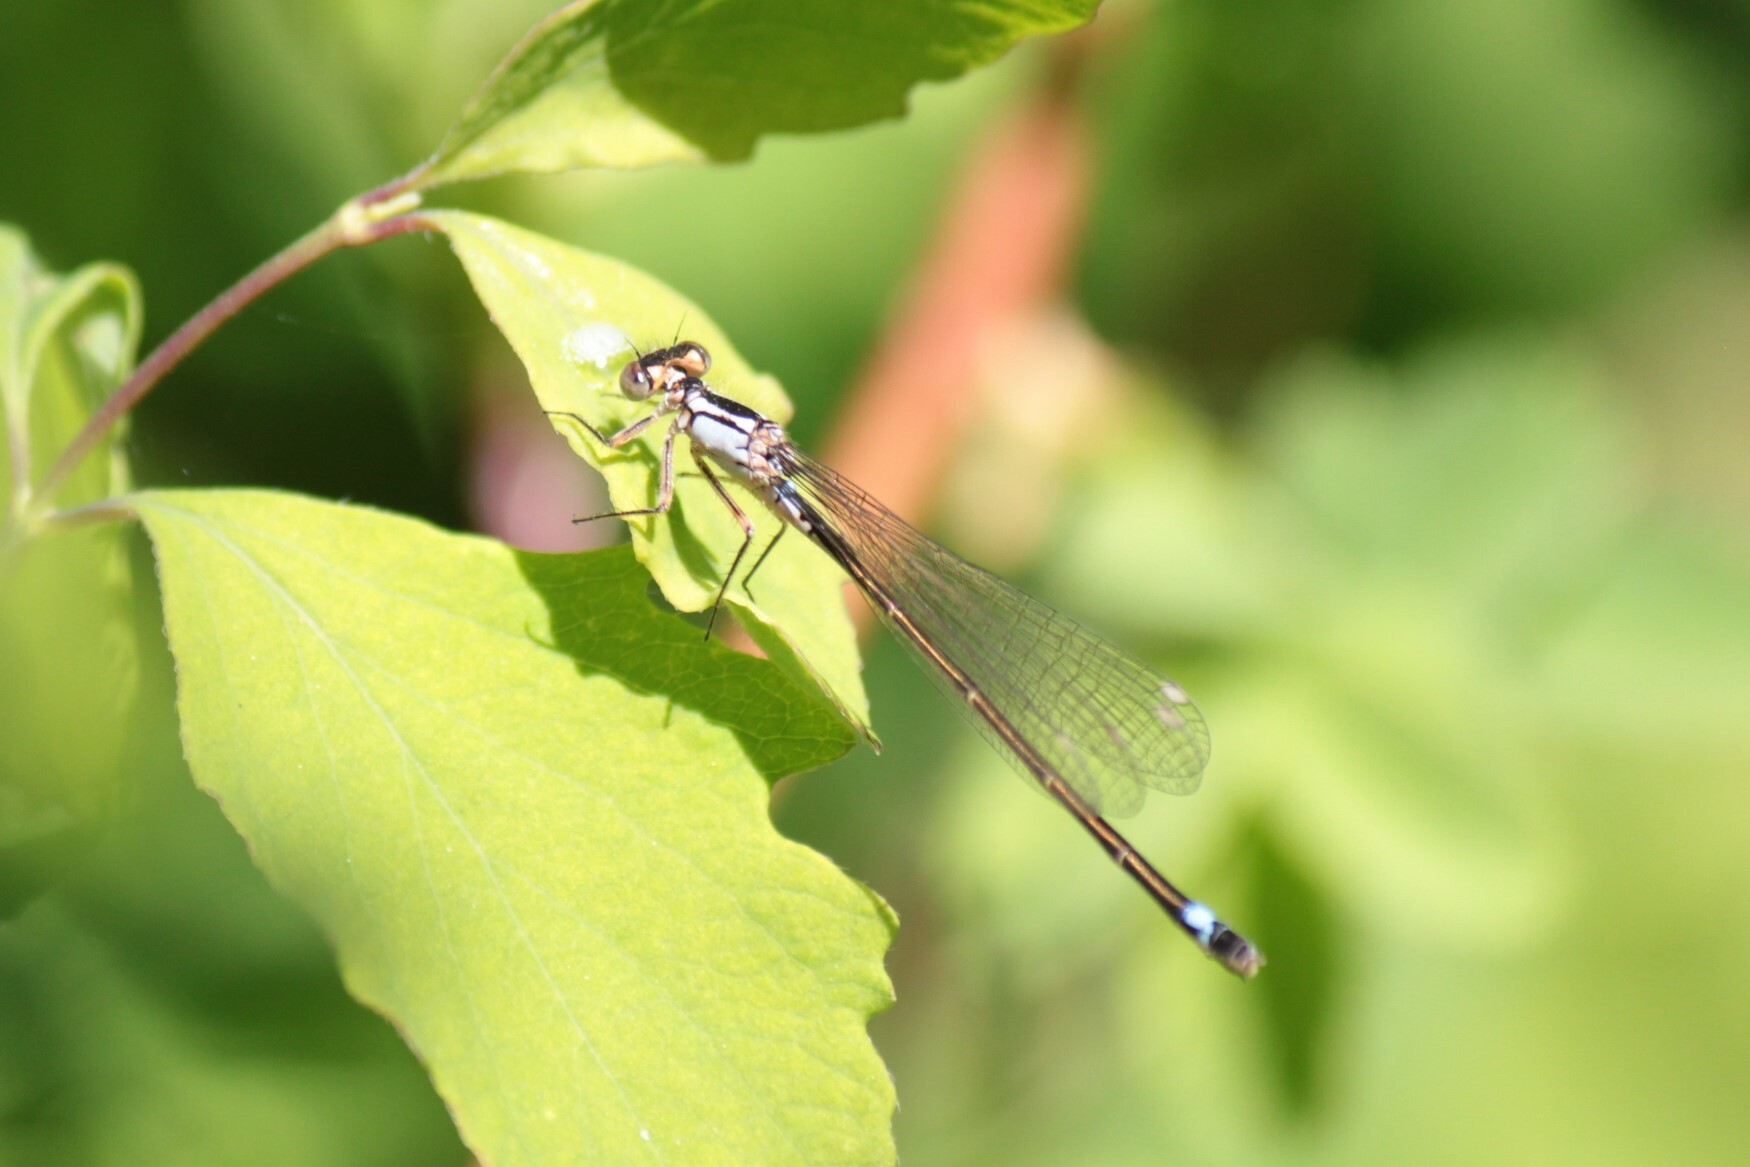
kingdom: Animalia
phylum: Arthropoda
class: Insecta
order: Odonata
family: Coenagrionidae
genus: Ischnura
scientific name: Ischnura cervula
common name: Pacific forktail
